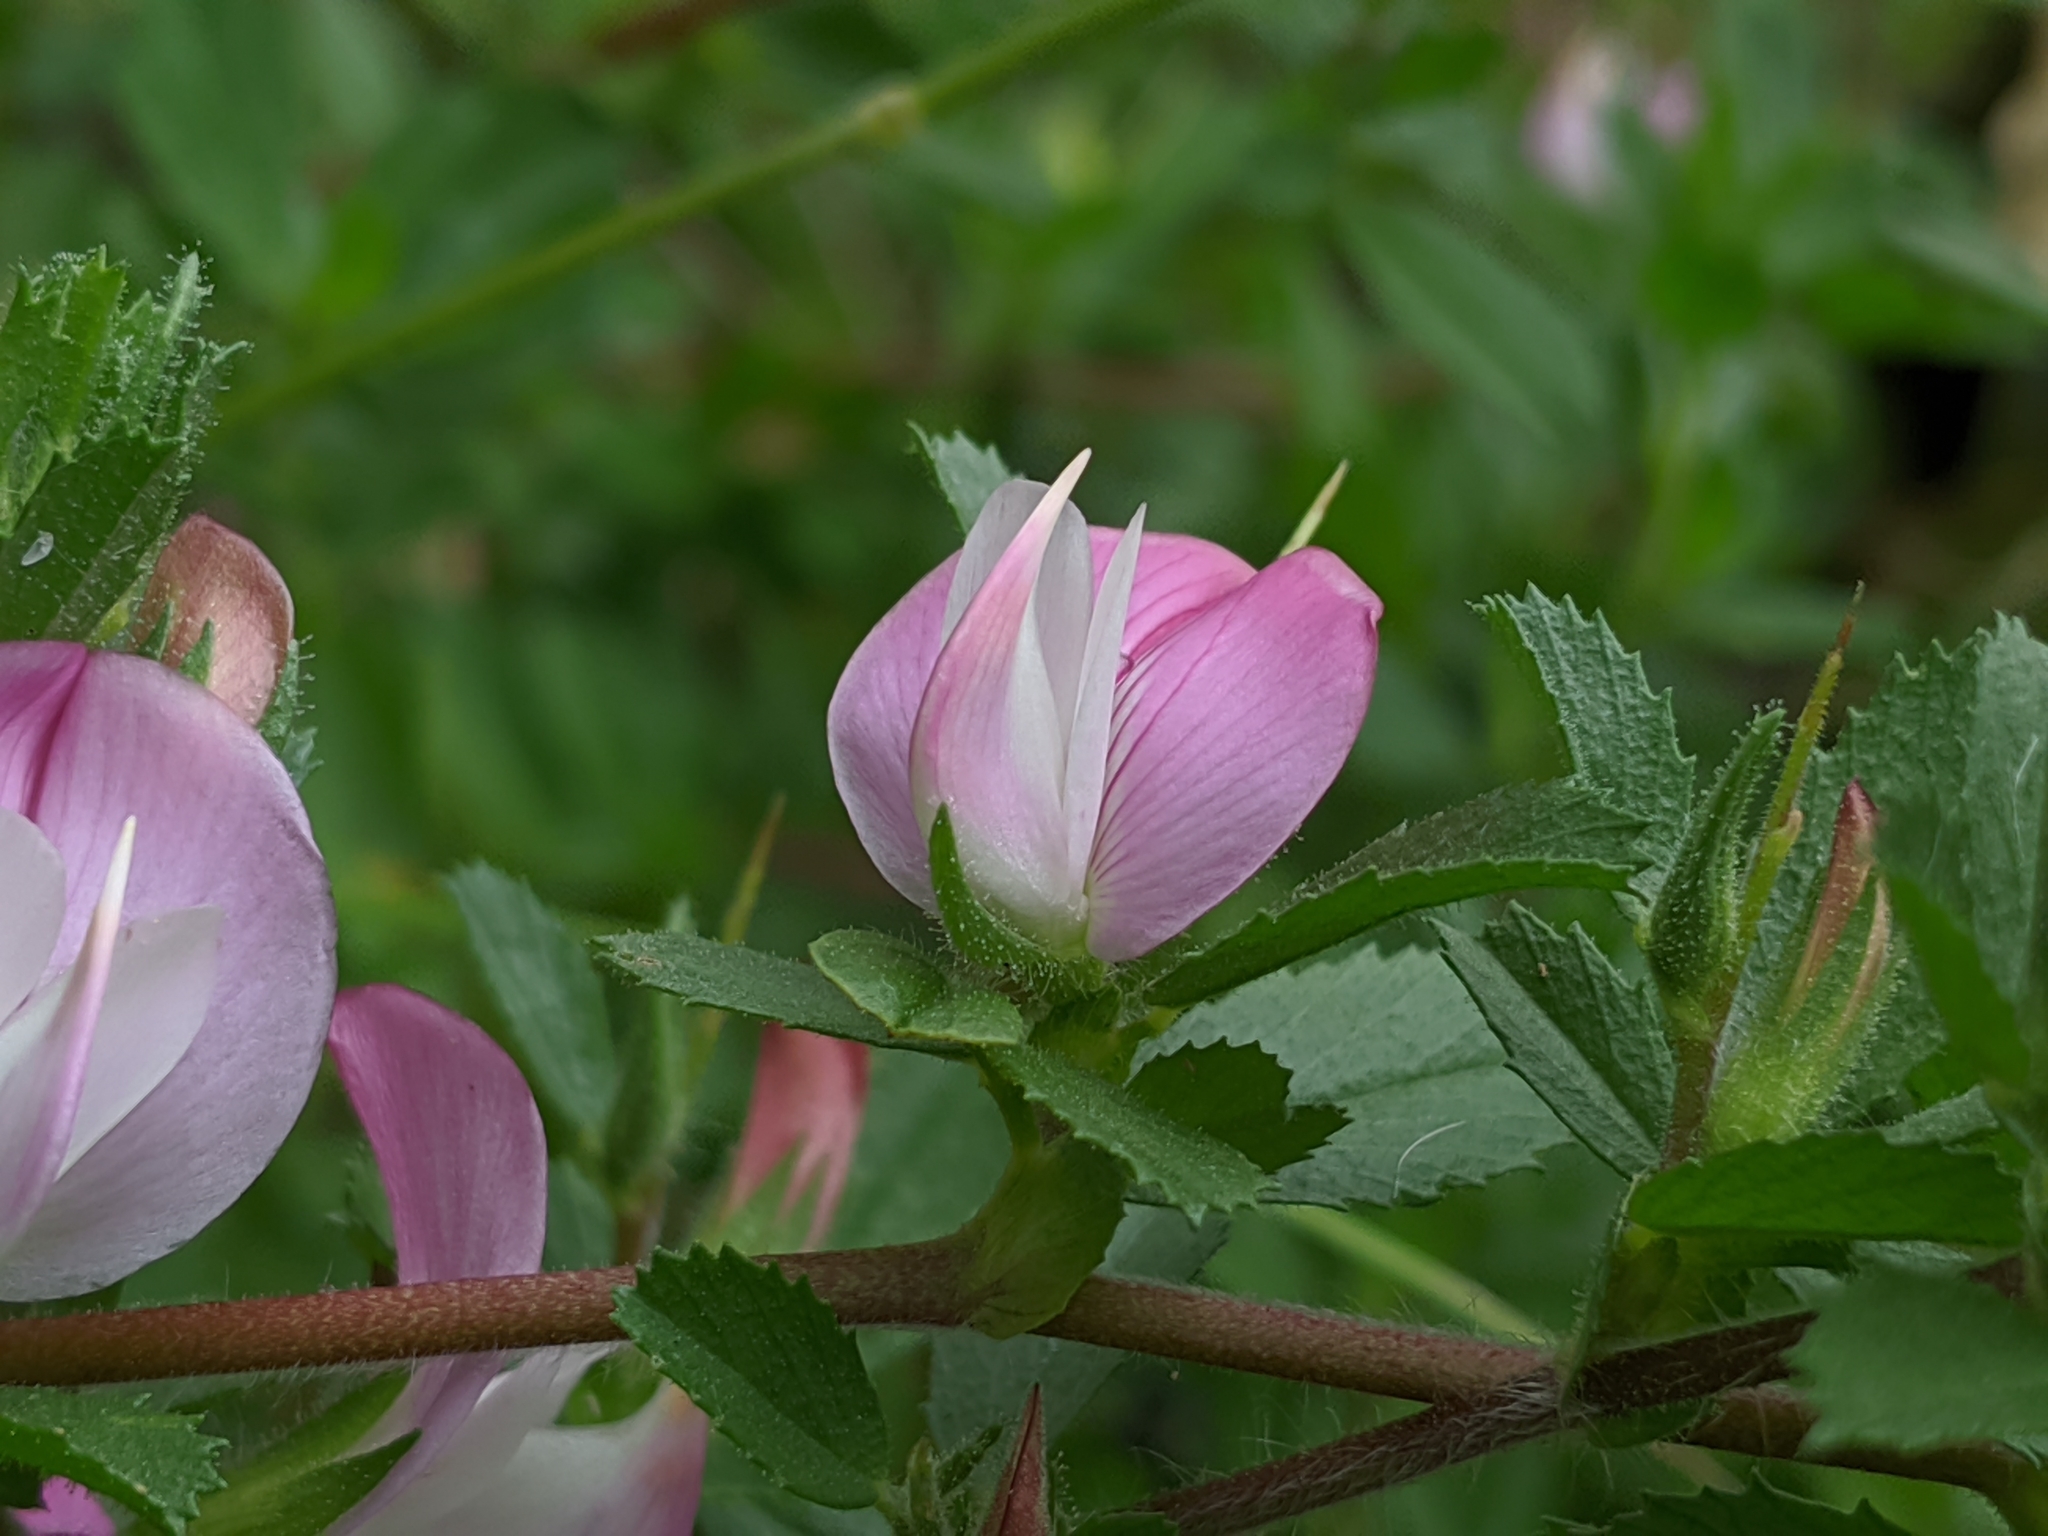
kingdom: Plantae
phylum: Tracheophyta
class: Magnoliopsida
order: Fabales
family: Fabaceae
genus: Ononis
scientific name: Ononis spinosa
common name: Spiny restharrow
